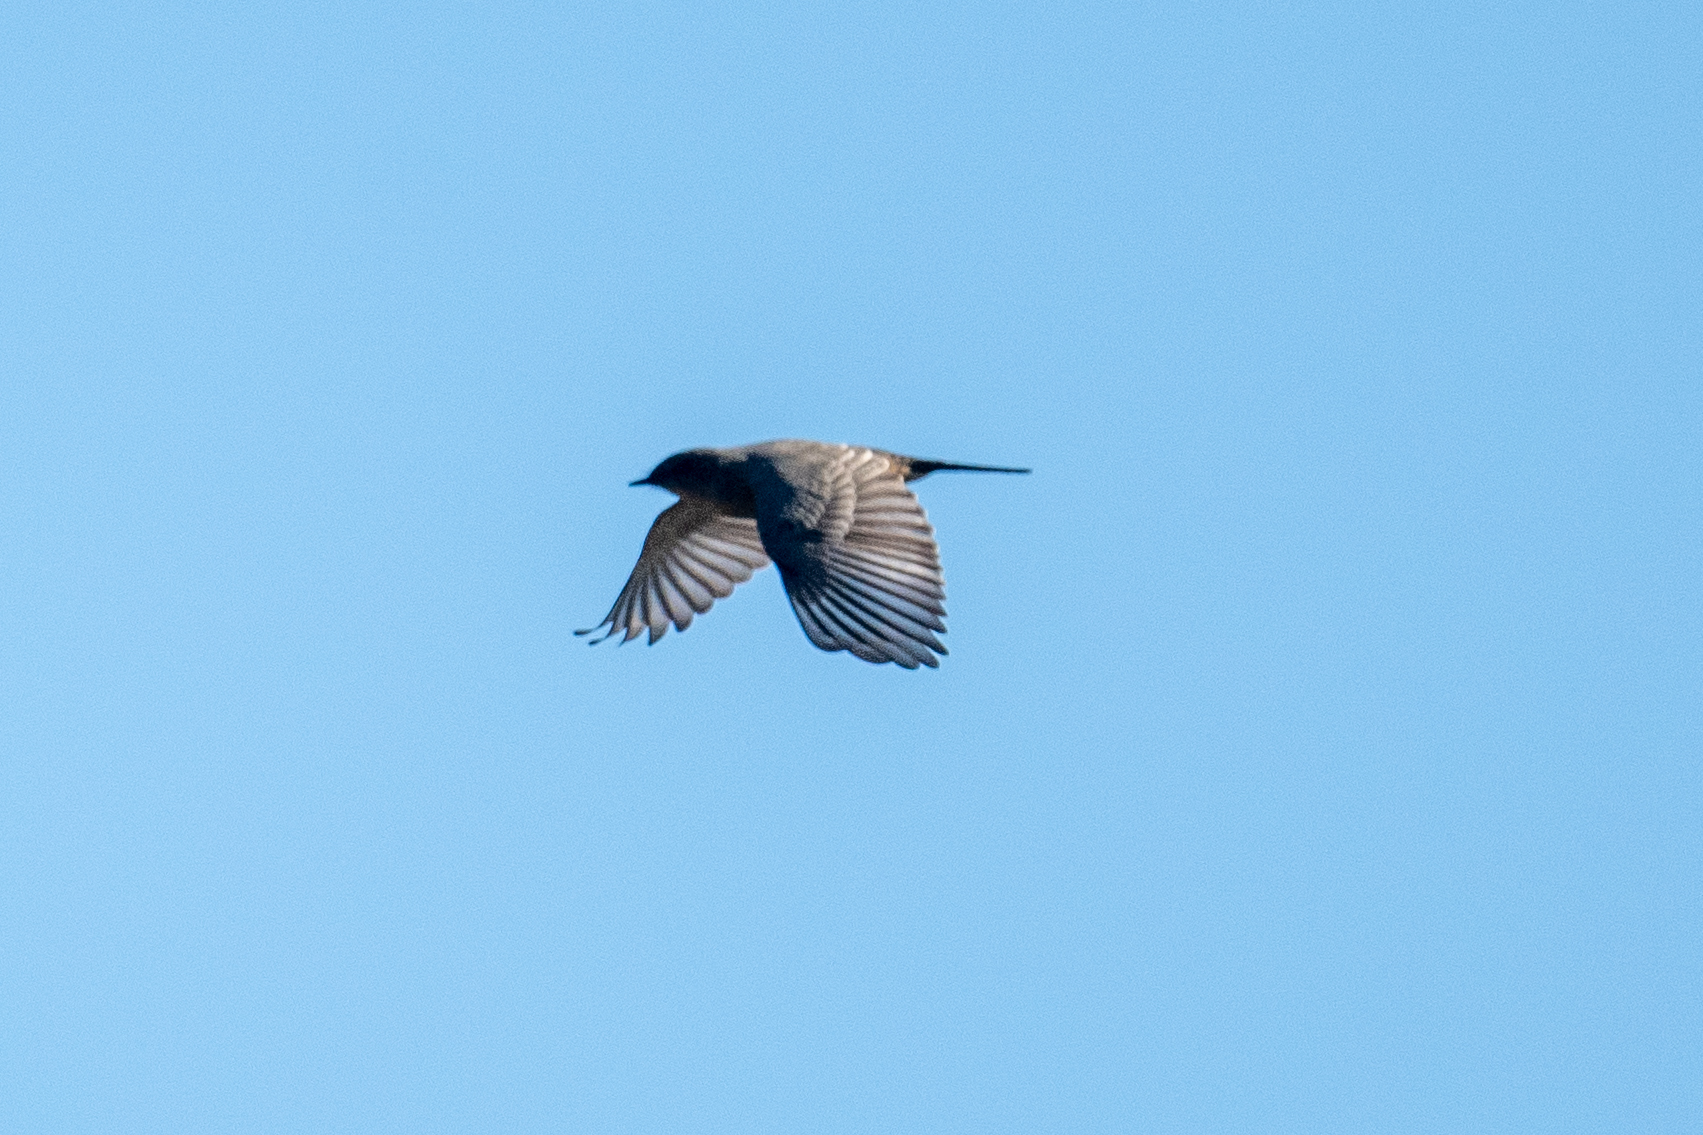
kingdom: Animalia
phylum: Chordata
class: Aves
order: Passeriformes
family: Tyrannidae
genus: Sayornis
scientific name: Sayornis saya
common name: Say's phoebe
